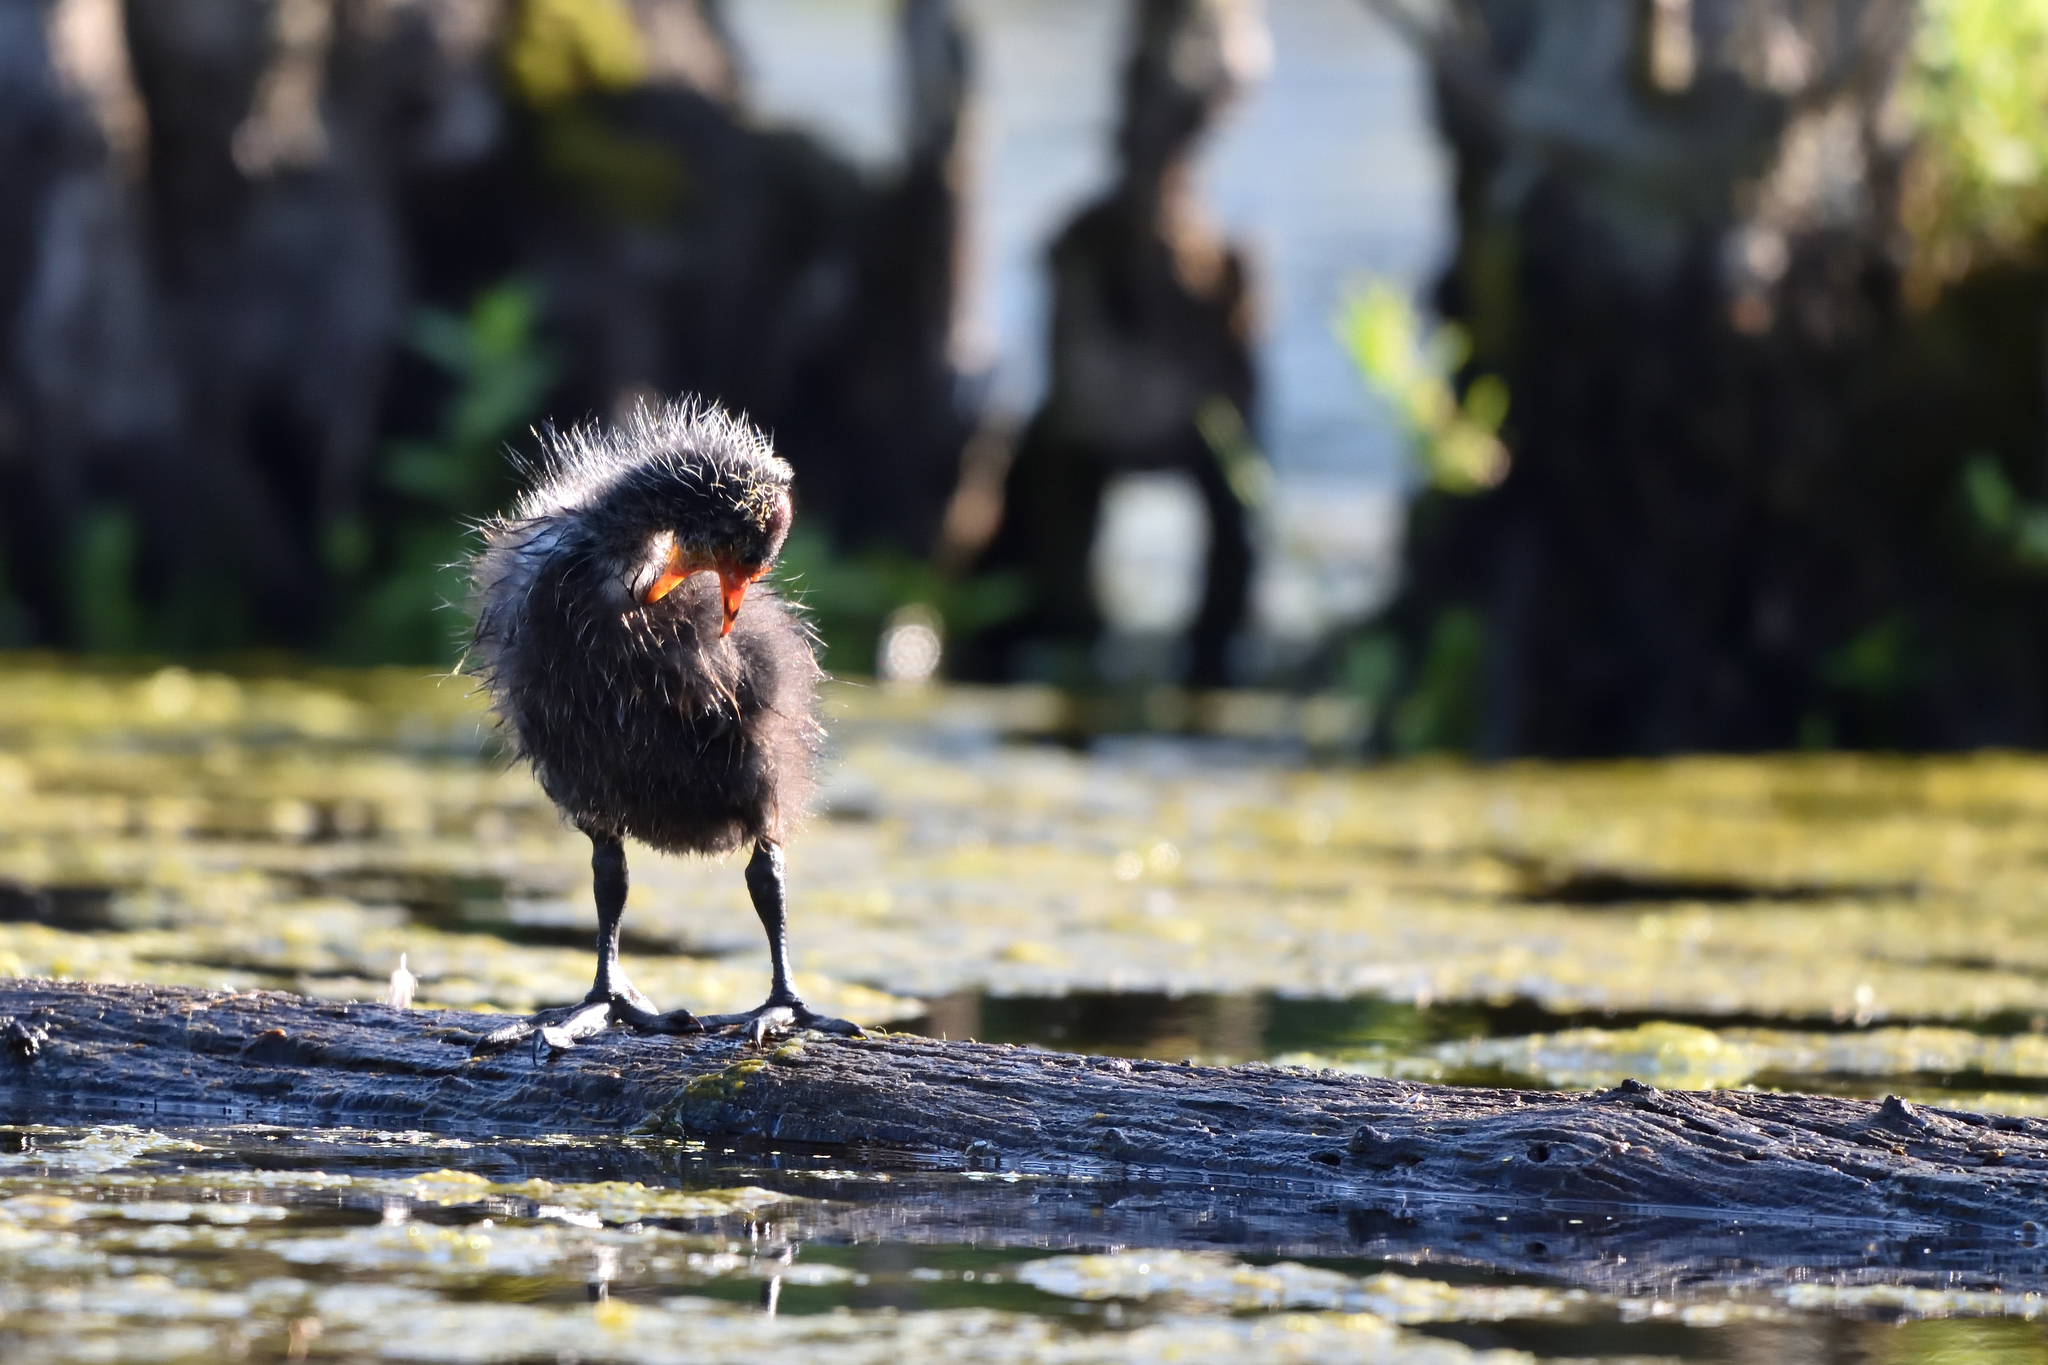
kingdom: Animalia
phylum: Chordata
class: Aves
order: Gruiformes
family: Rallidae
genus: Fulica
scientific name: Fulica atra
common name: Eurasian coot
